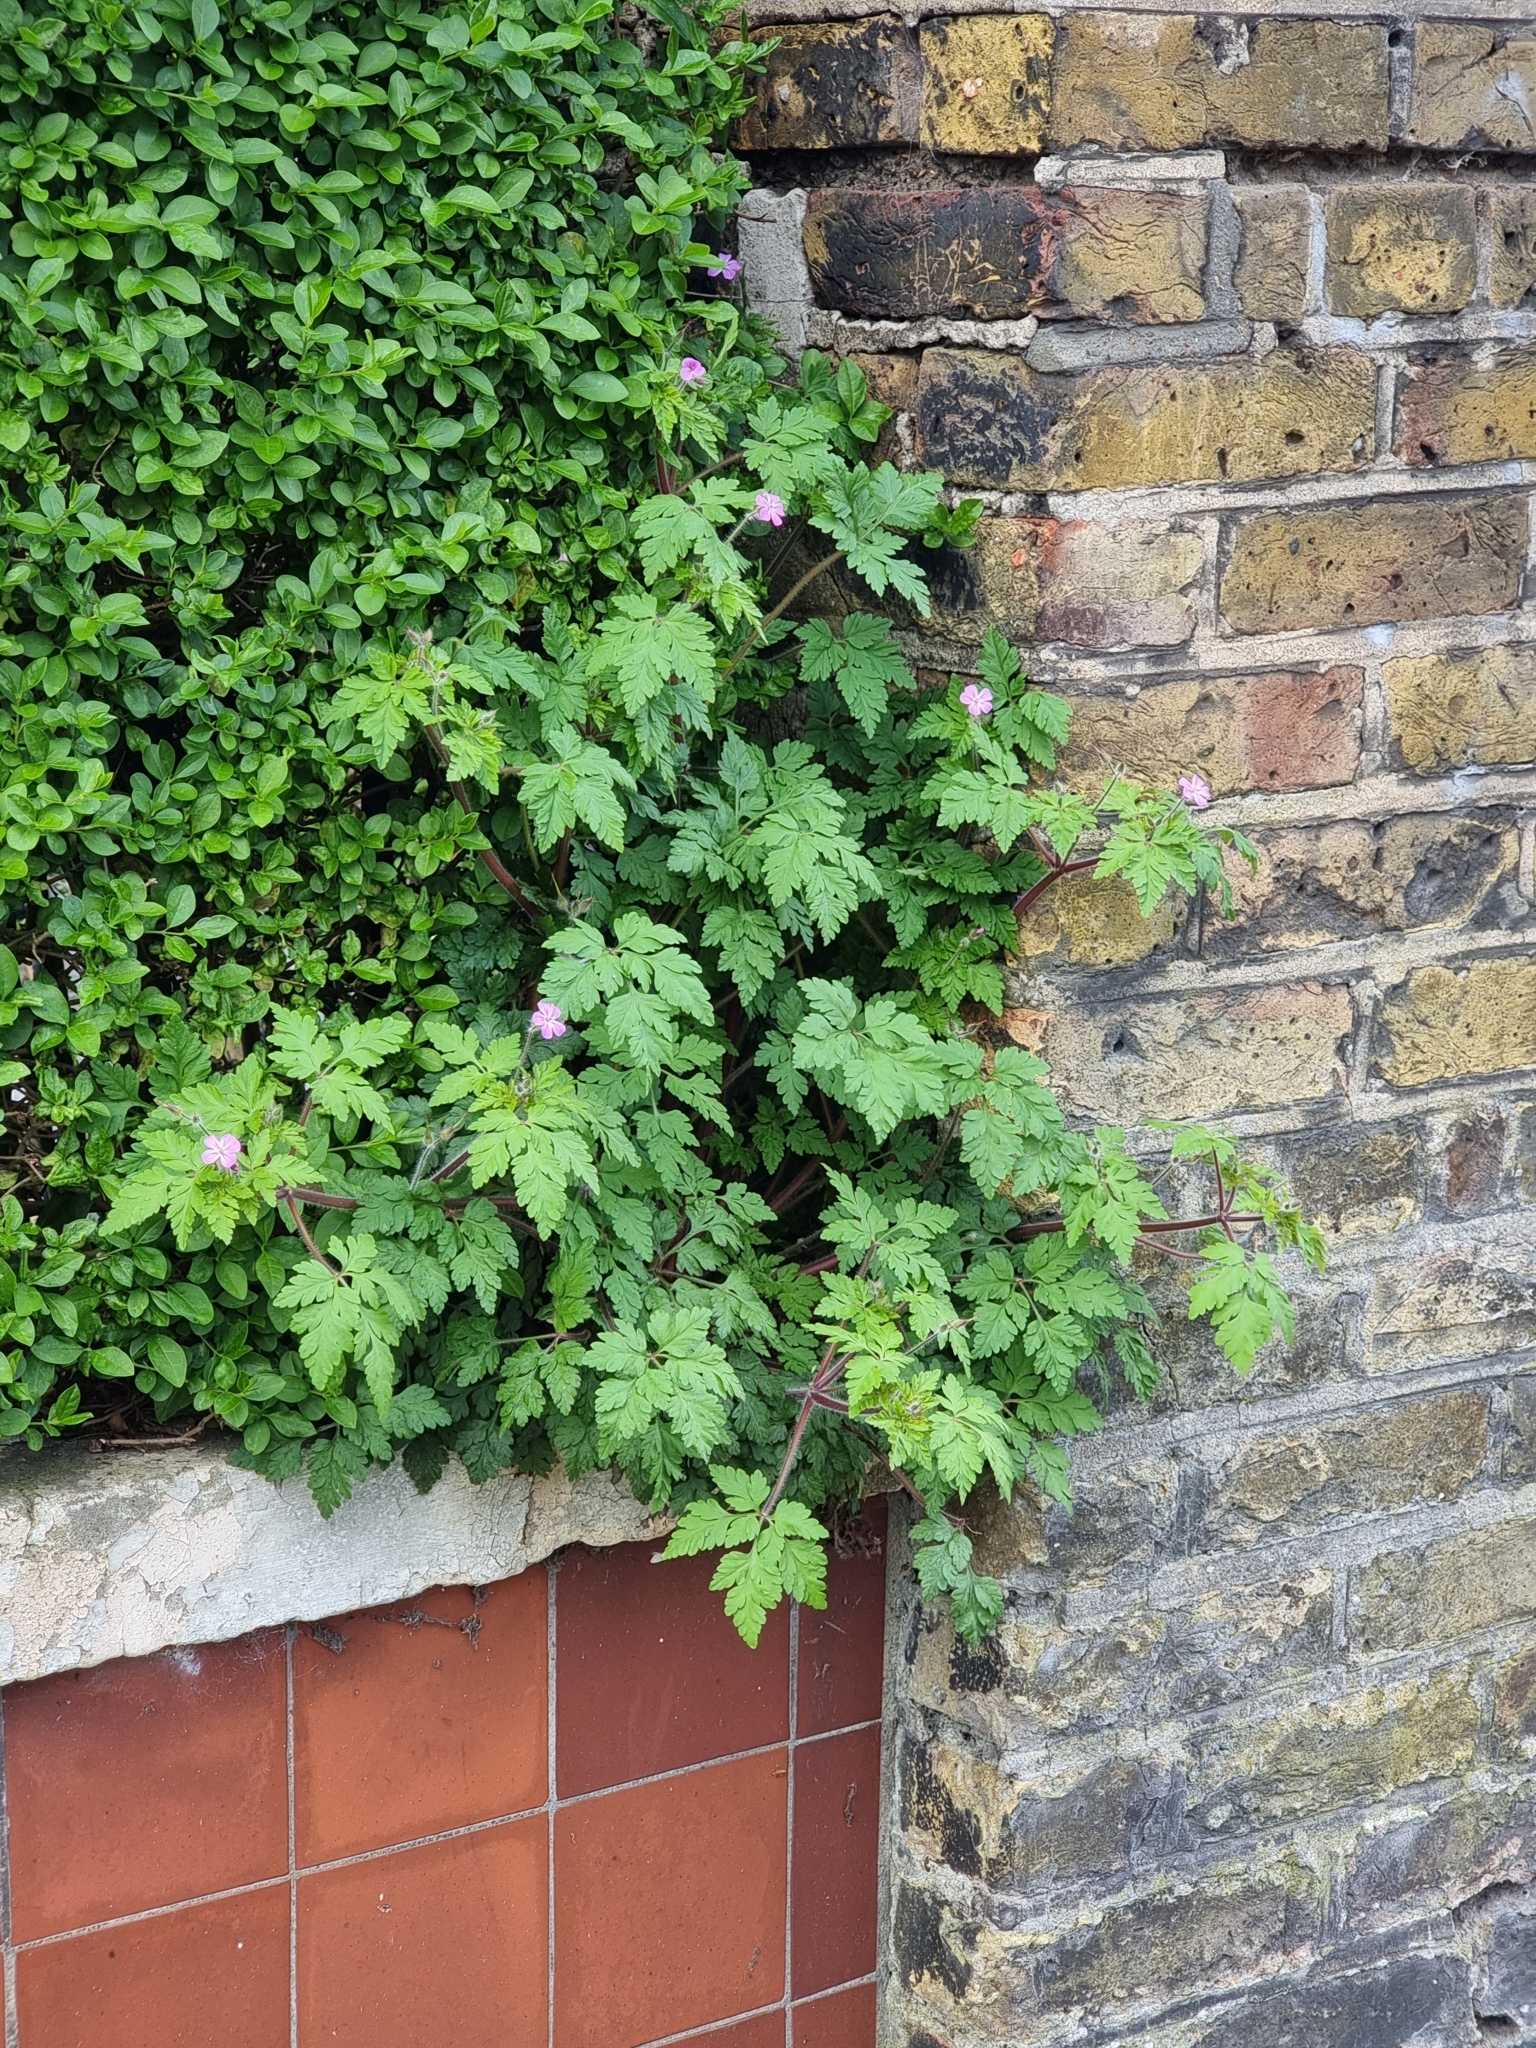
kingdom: Plantae
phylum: Tracheophyta
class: Magnoliopsida
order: Geraniales
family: Geraniaceae
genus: Geranium
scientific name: Geranium robertianum
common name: Herb-robert
